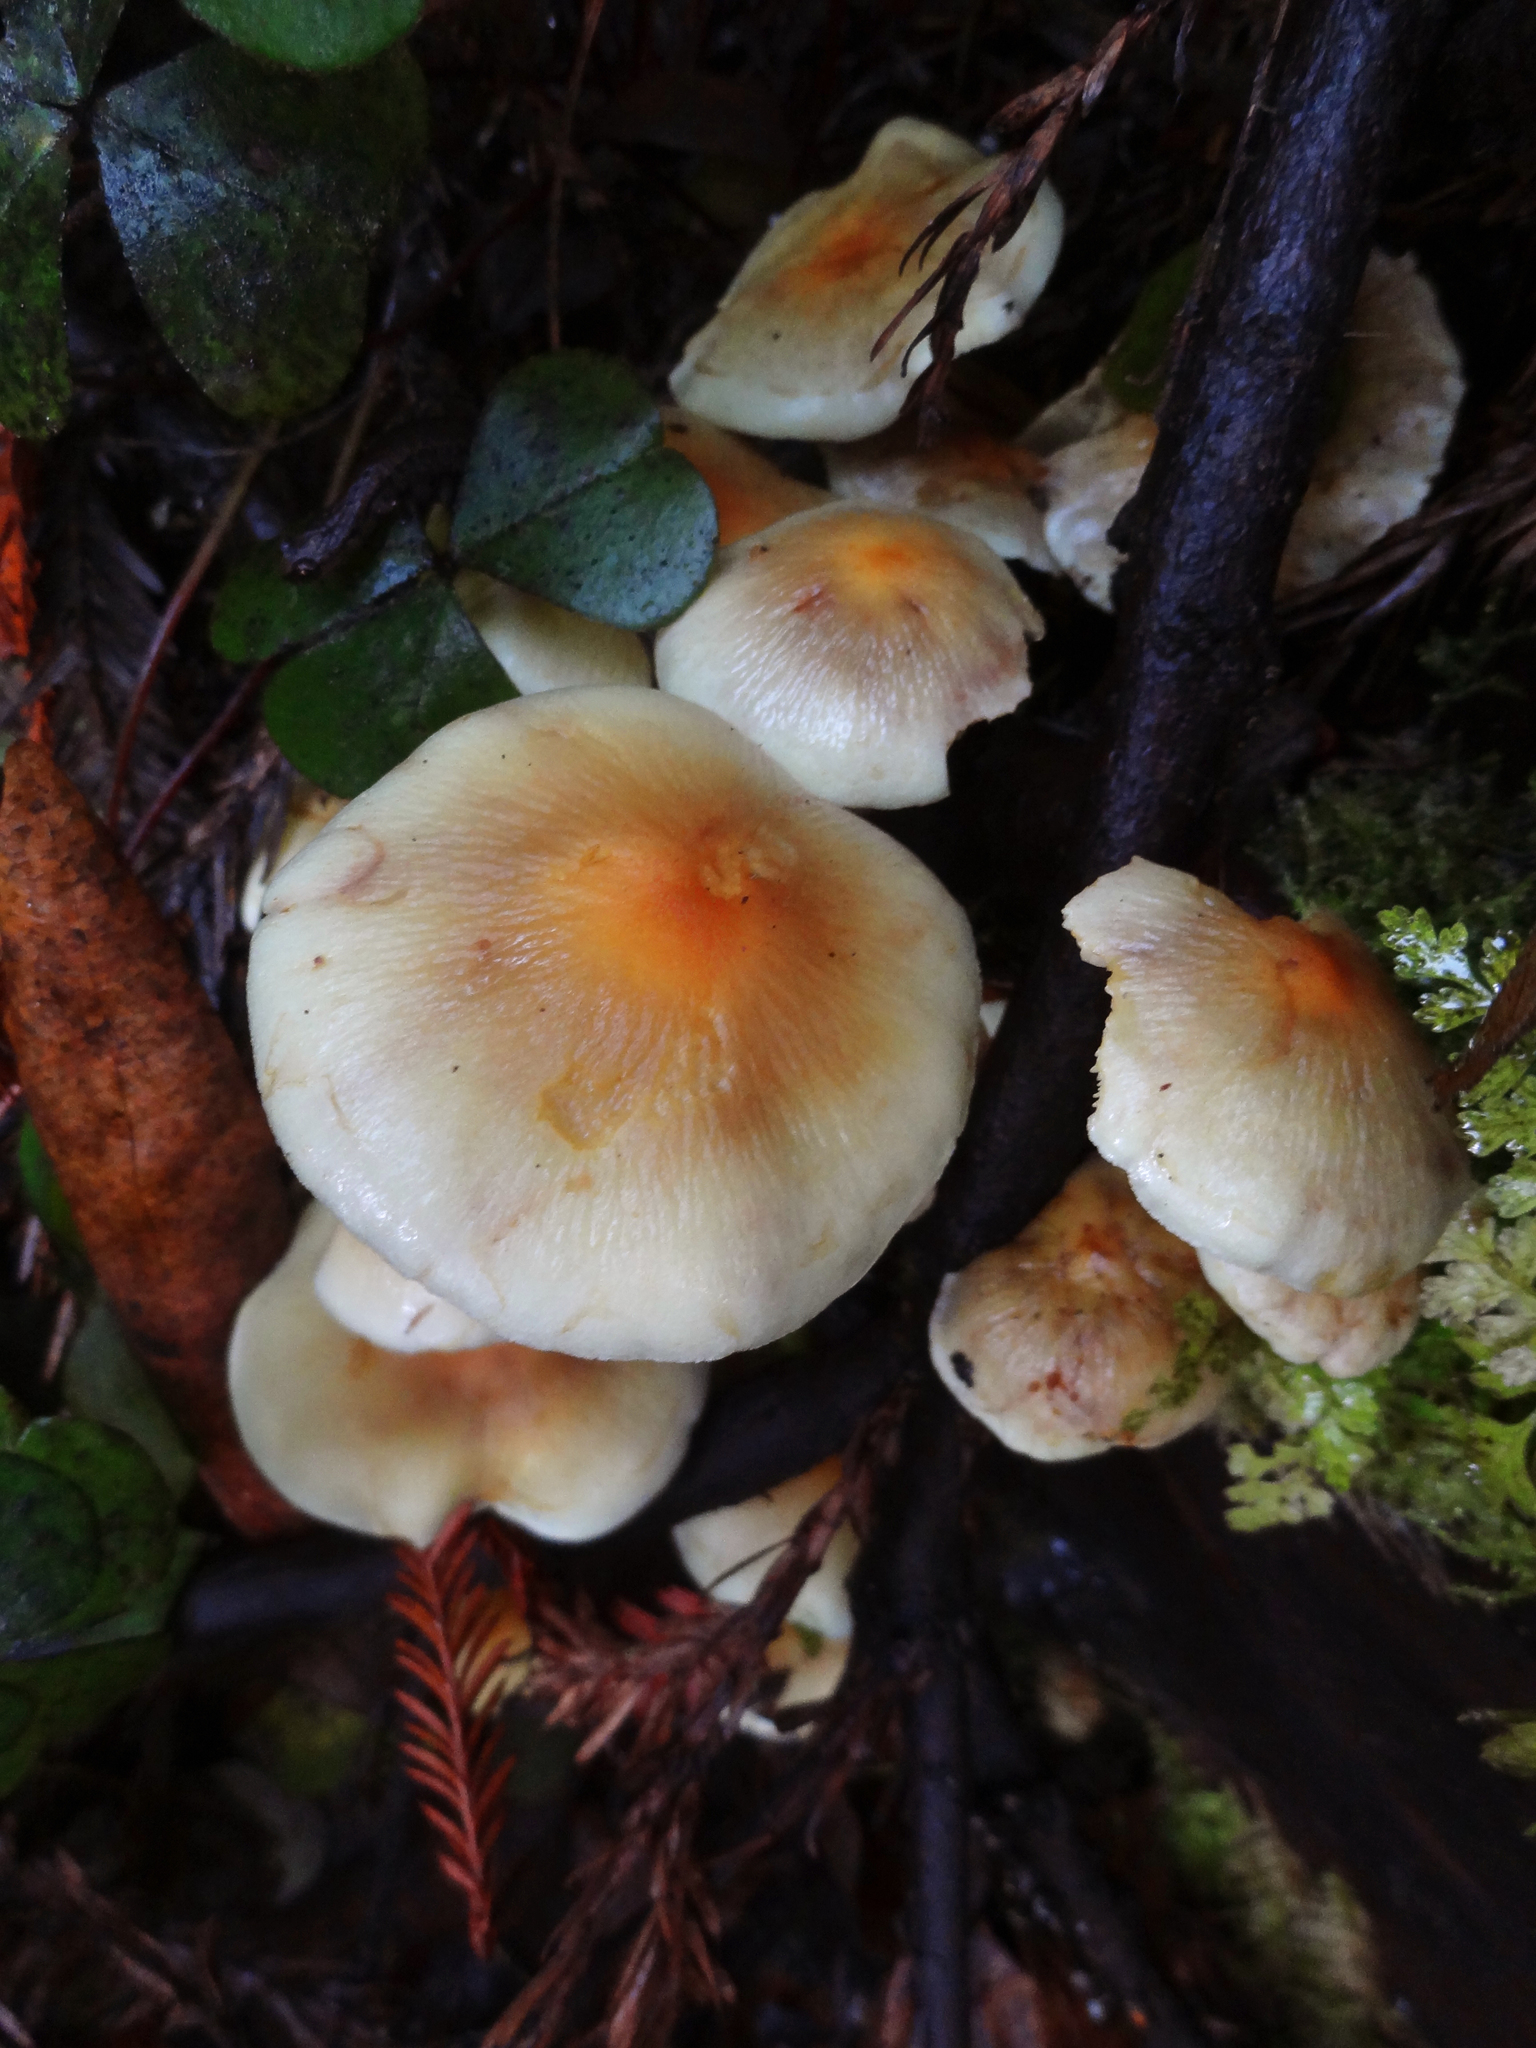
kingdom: Fungi
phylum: Basidiomycota
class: Agaricomycetes
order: Agaricales
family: Strophariaceae
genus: Hypholoma
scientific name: Hypholoma fasciculare
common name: Sulphur tuft
